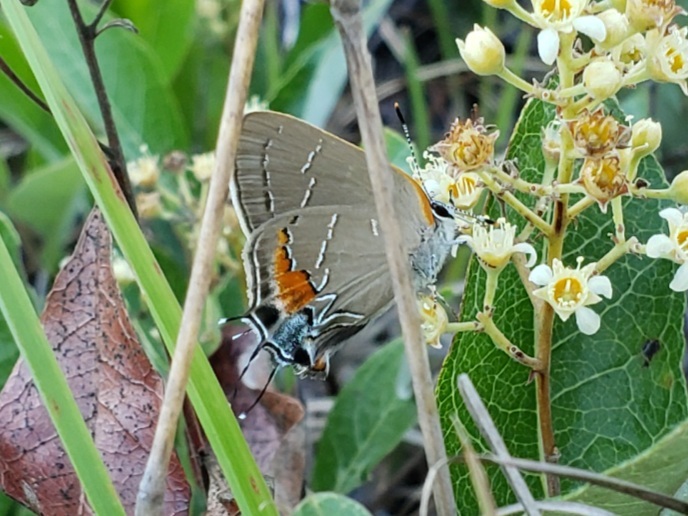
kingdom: Animalia
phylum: Arthropoda
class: Insecta
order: Lepidoptera
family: Lycaenidae
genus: Fixsenia
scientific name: Fixsenia favonius
